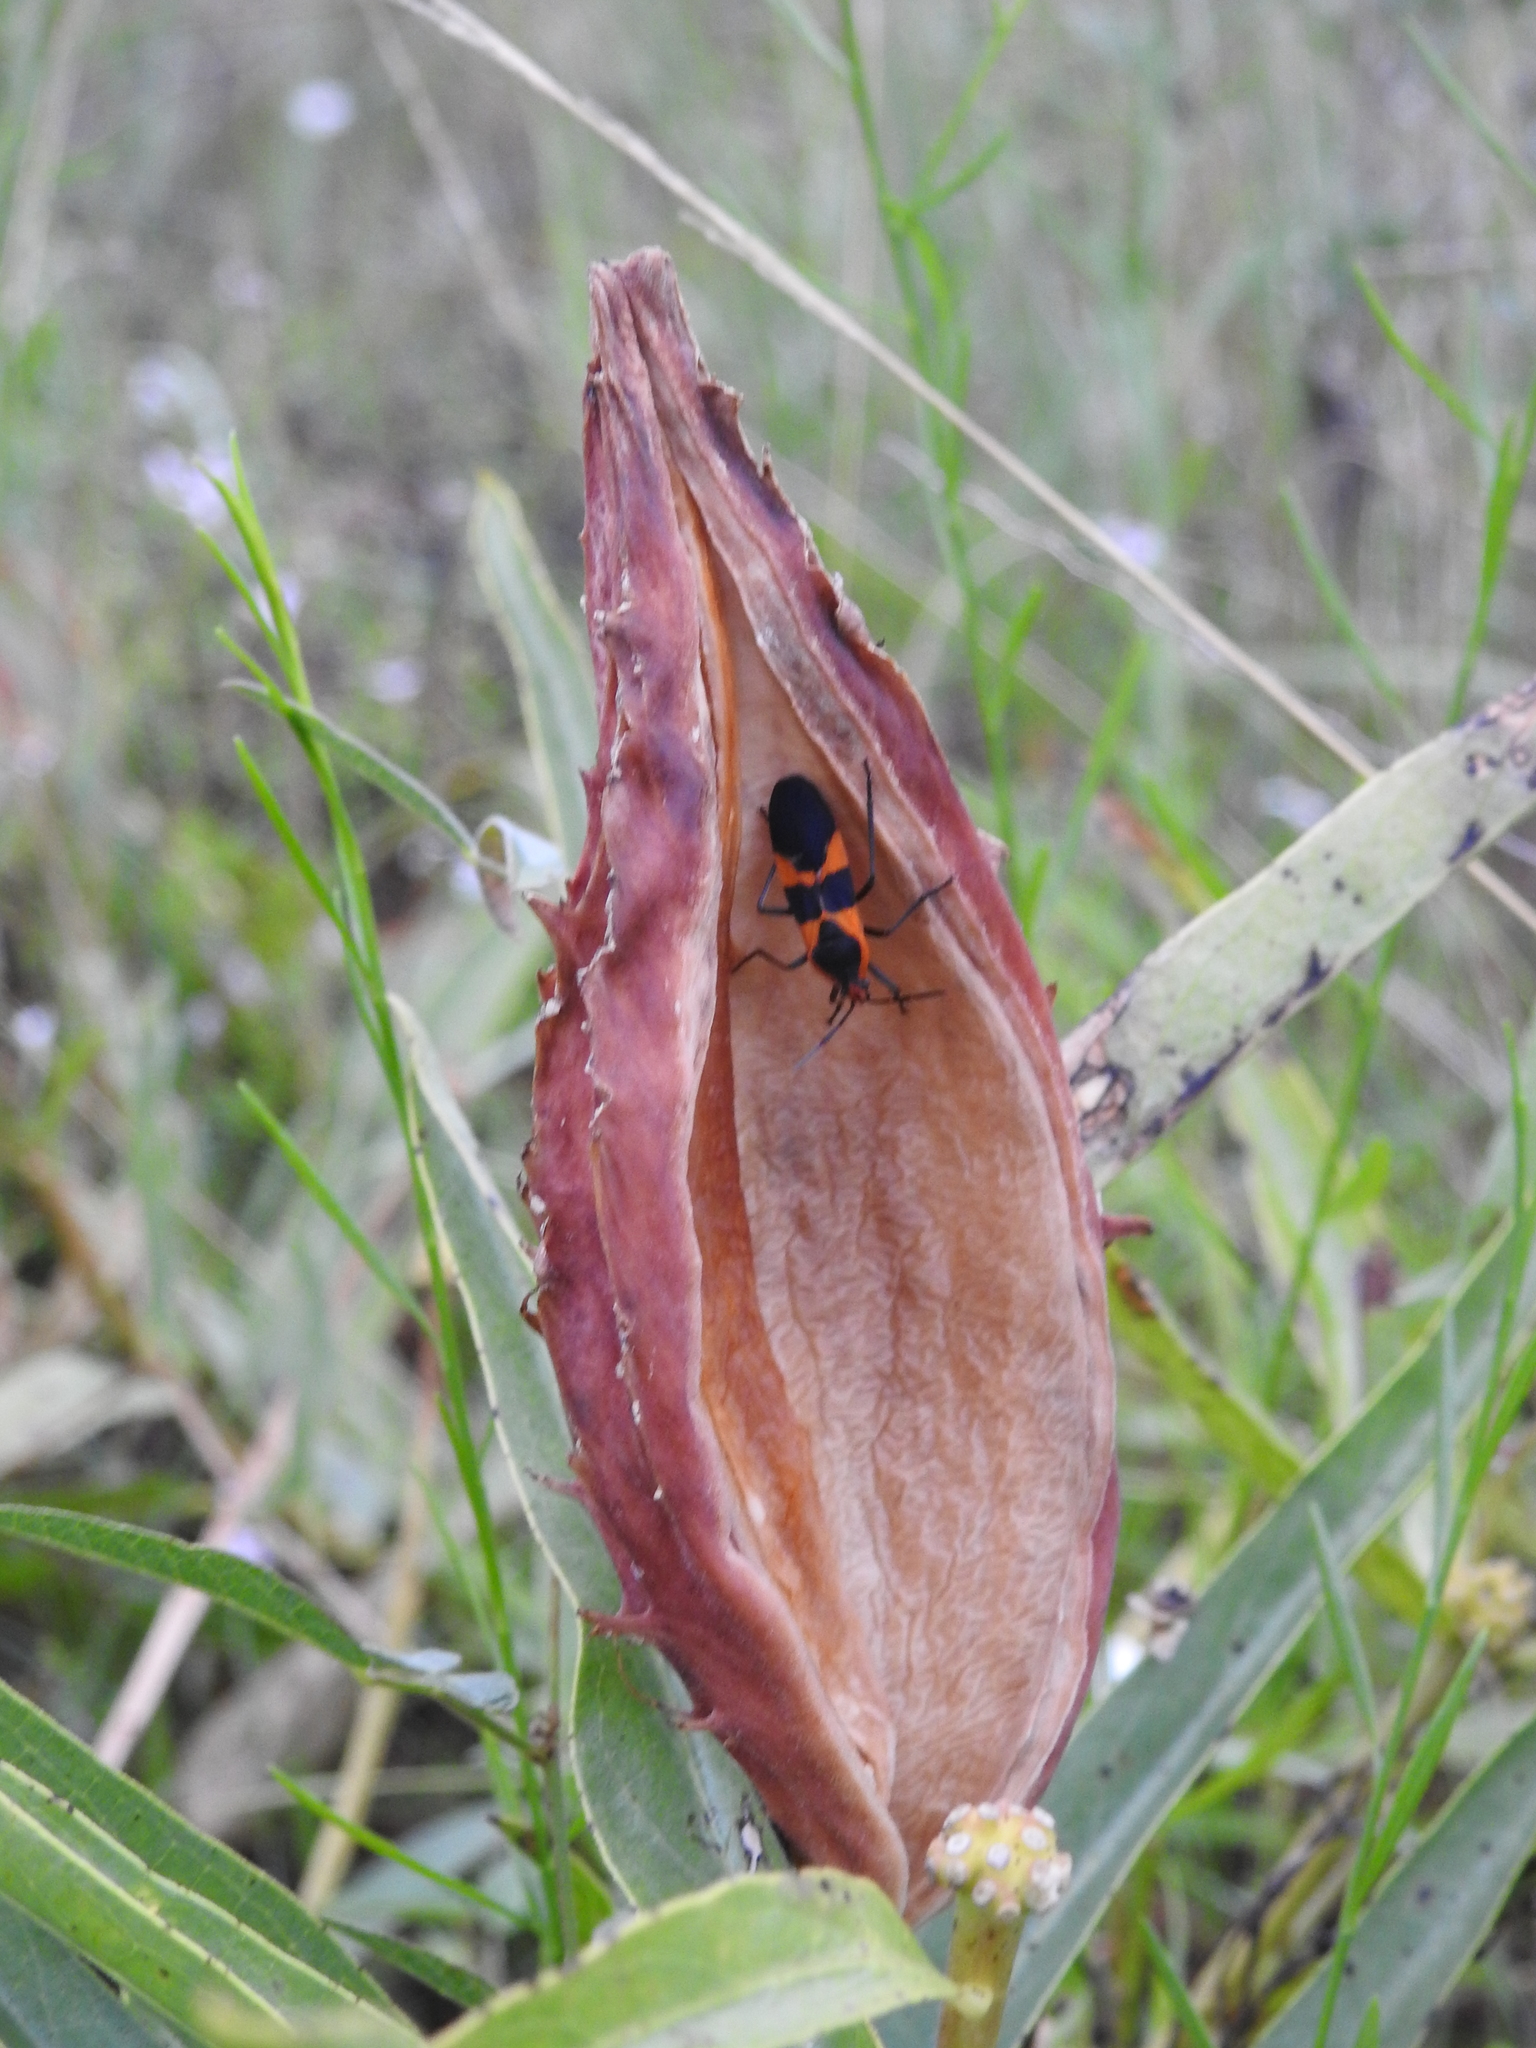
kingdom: Plantae
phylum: Tracheophyta
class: Magnoliopsida
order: Gentianales
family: Apocynaceae
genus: Asclepias
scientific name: Asclepias asperula
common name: Antelope horns
